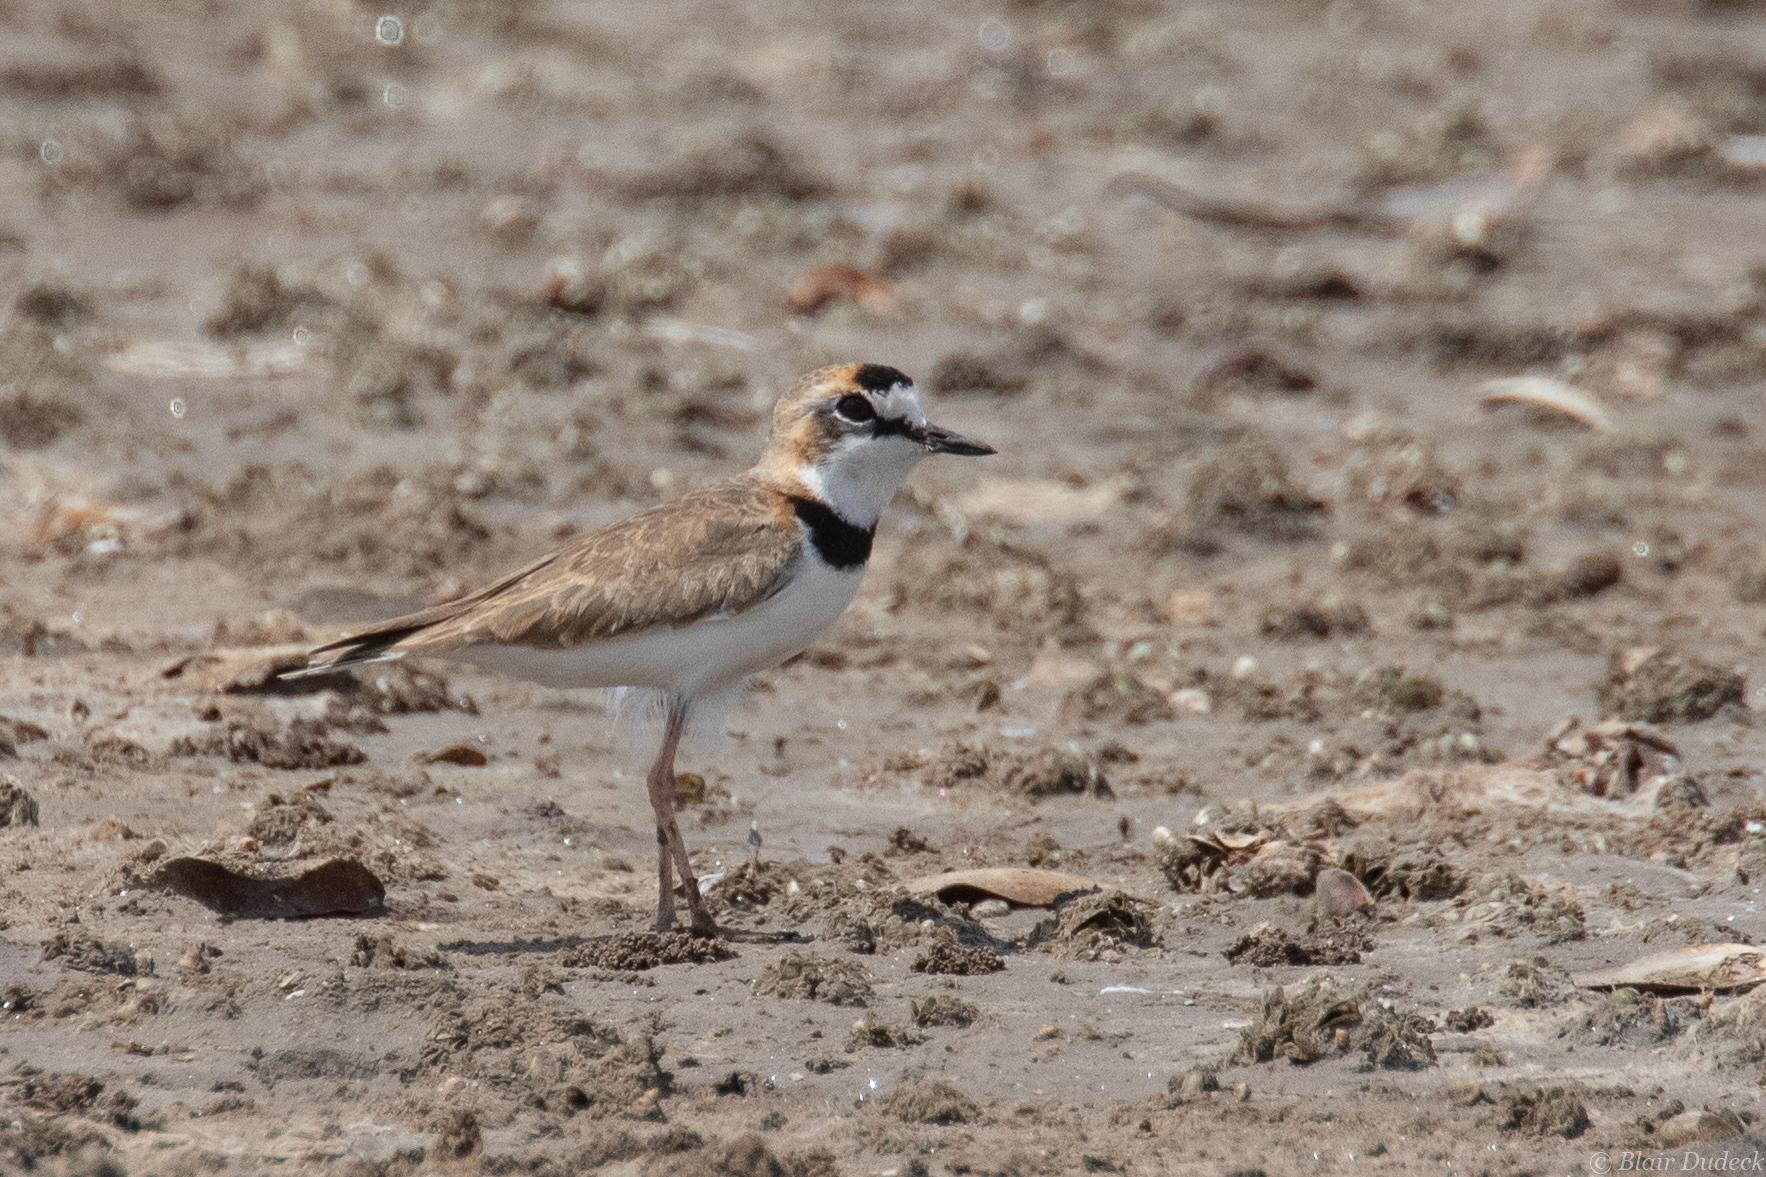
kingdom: Animalia
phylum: Chordata
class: Aves
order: Charadriiformes
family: Charadriidae
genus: Anarhynchus
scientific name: Anarhynchus
